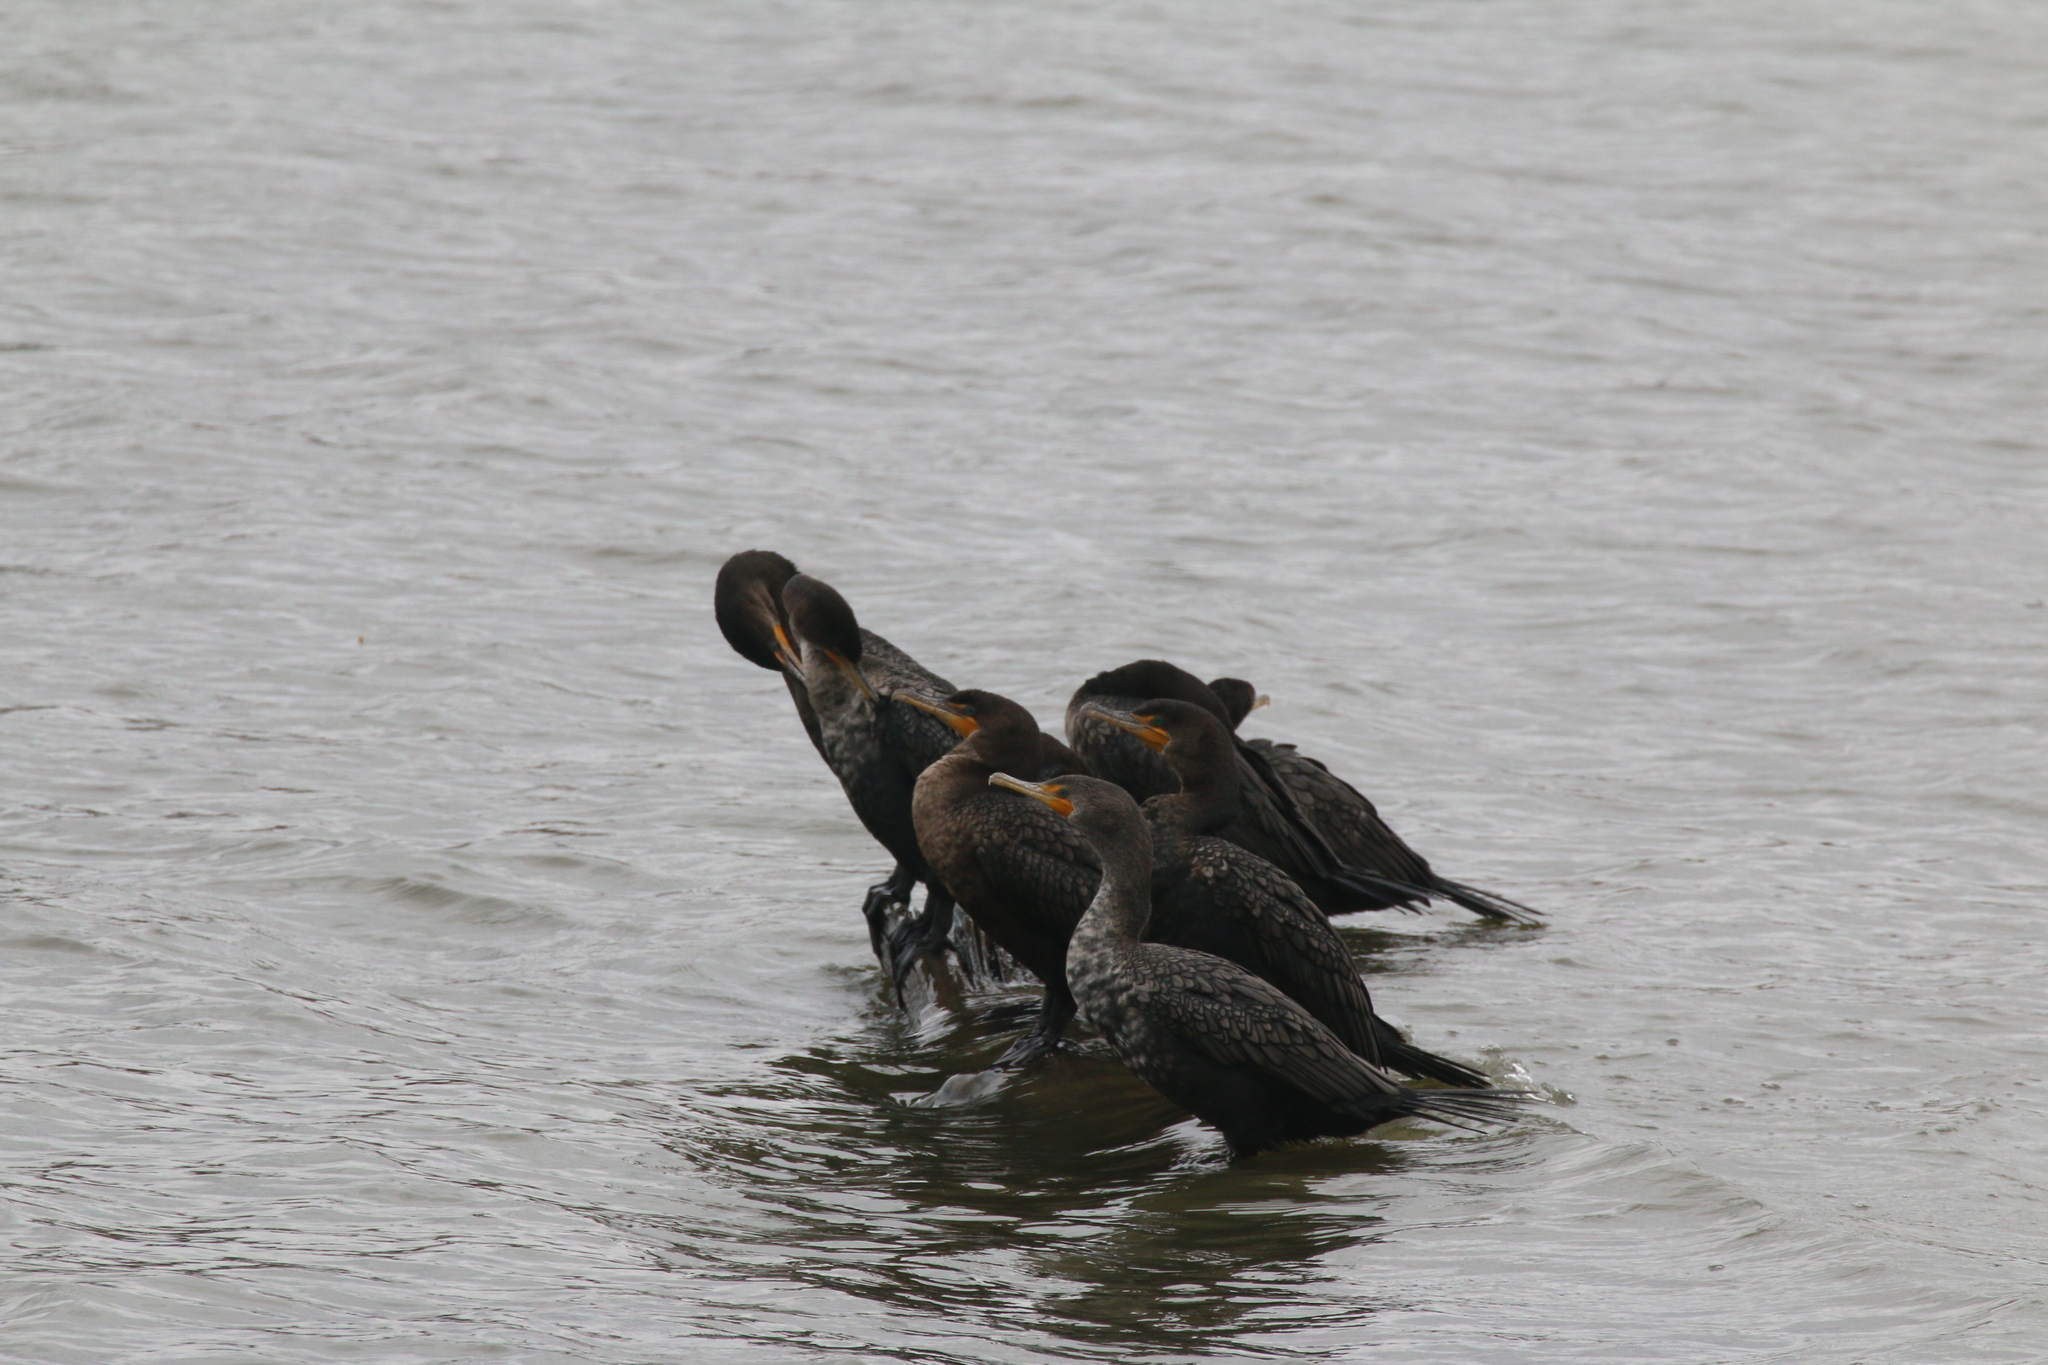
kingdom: Animalia
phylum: Chordata
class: Aves
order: Suliformes
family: Phalacrocoracidae
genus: Phalacrocorax
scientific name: Phalacrocorax auritus
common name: Double-crested cormorant
